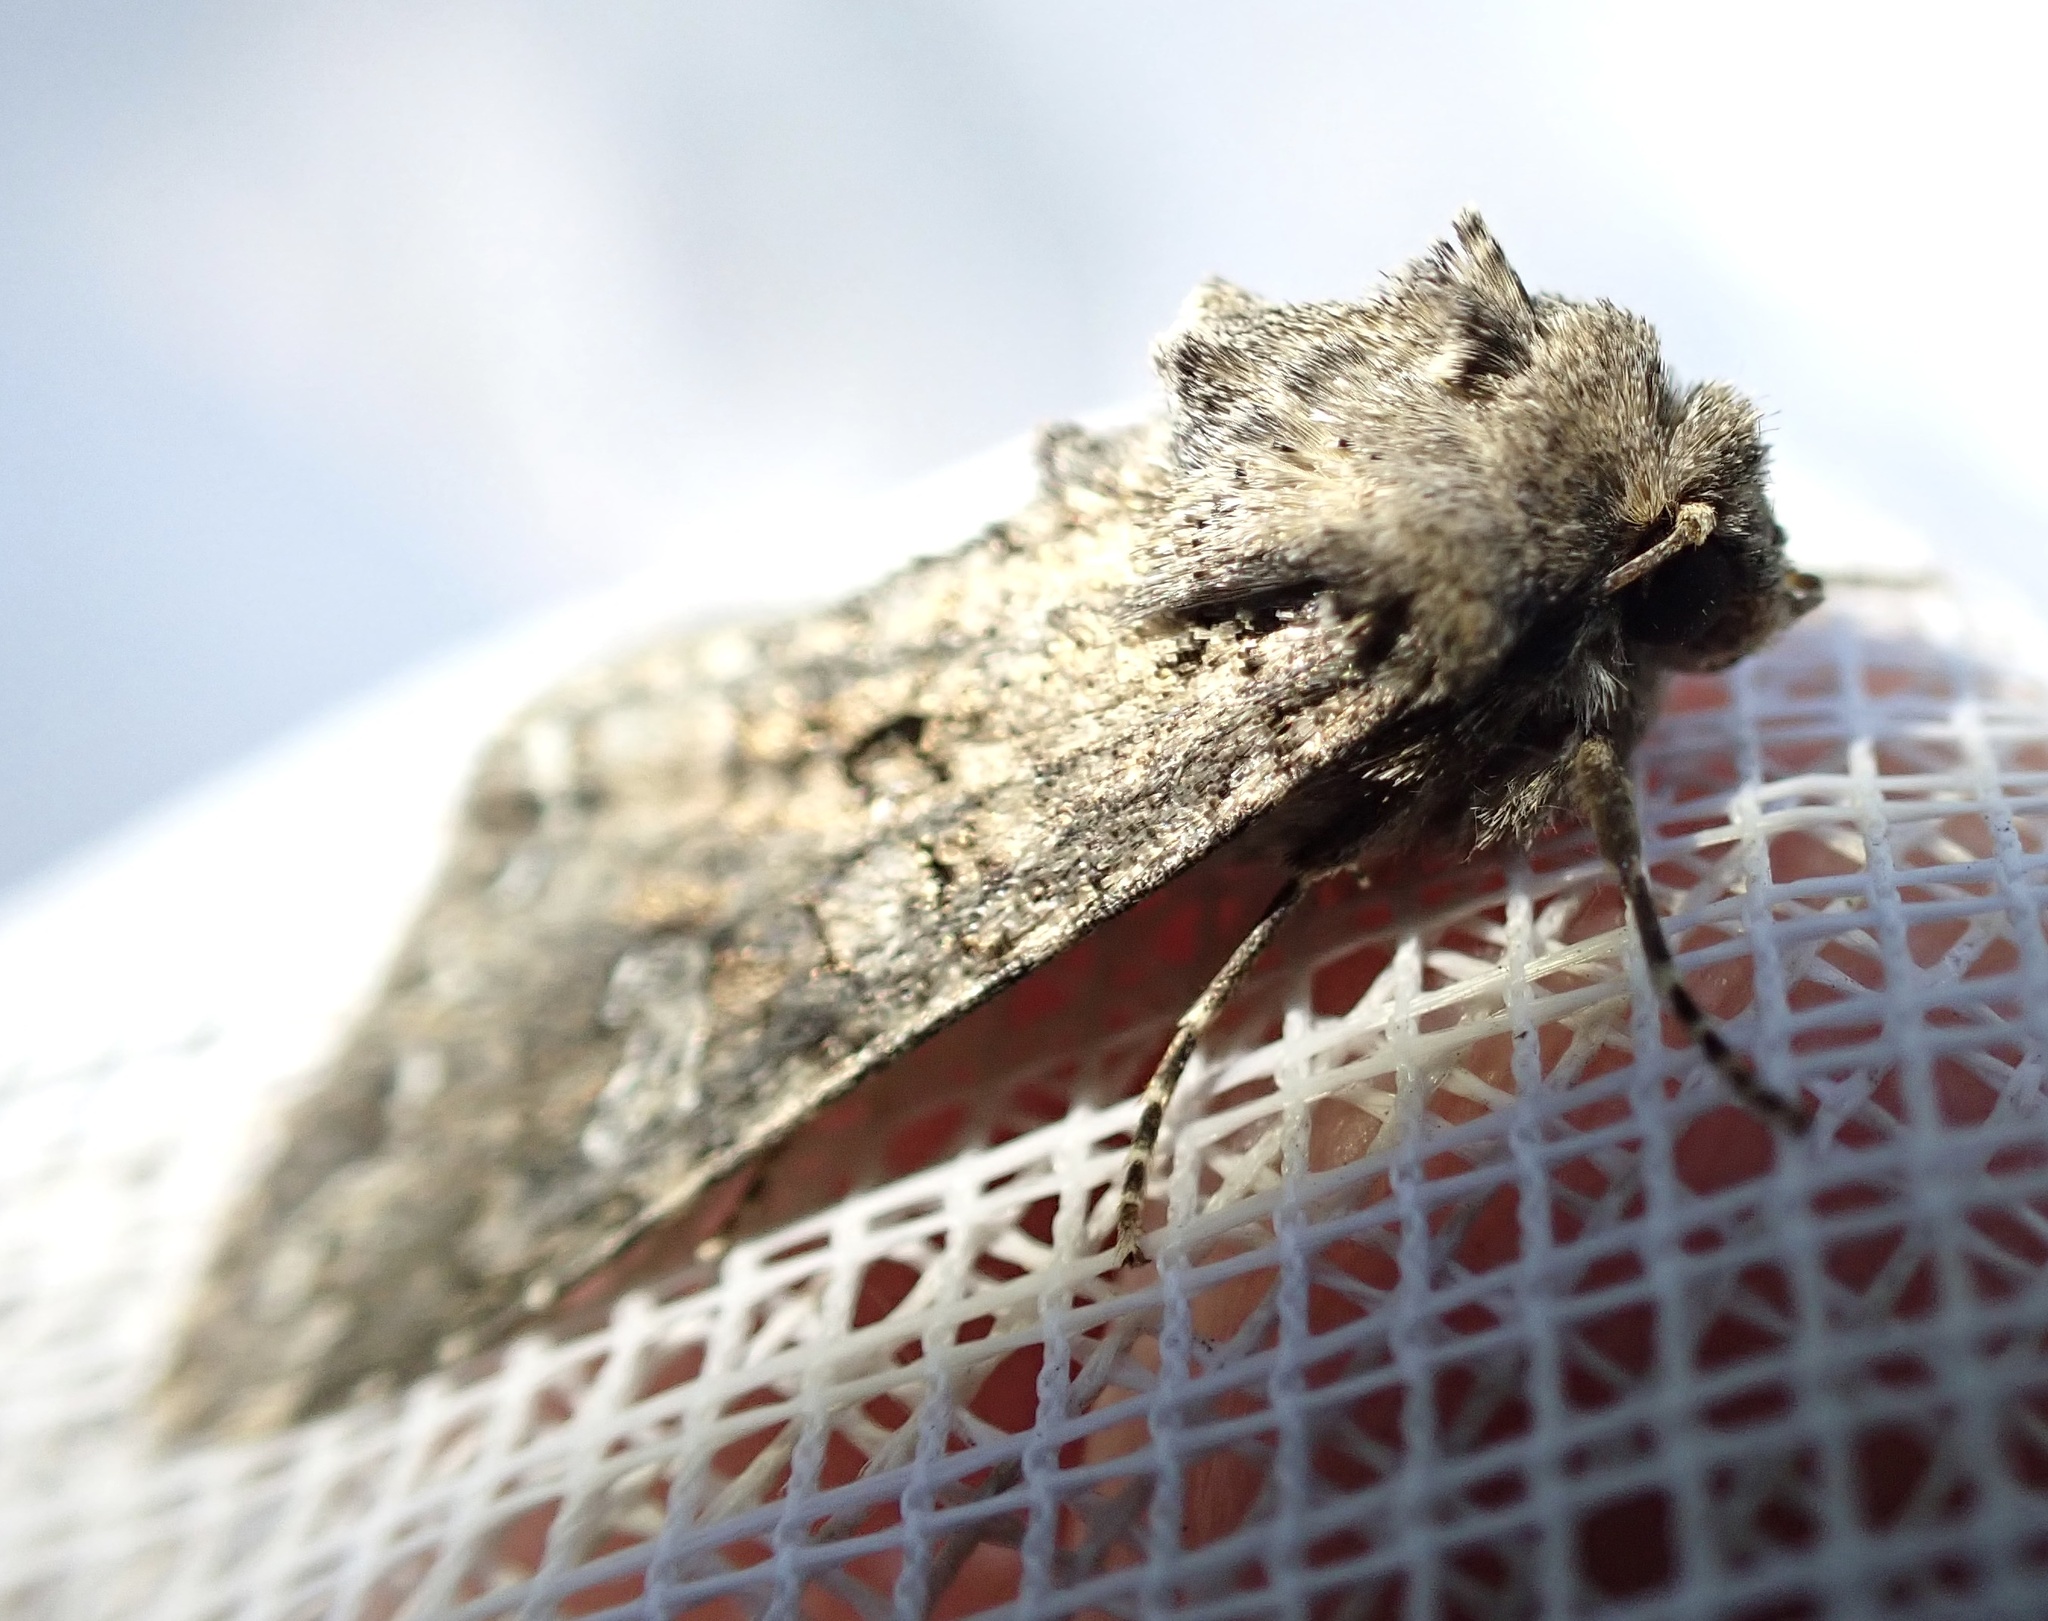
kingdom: Animalia
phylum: Arthropoda
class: Insecta
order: Lepidoptera
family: Noctuidae
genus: Mamestra
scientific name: Mamestra brassicae
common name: Cabbage moth
